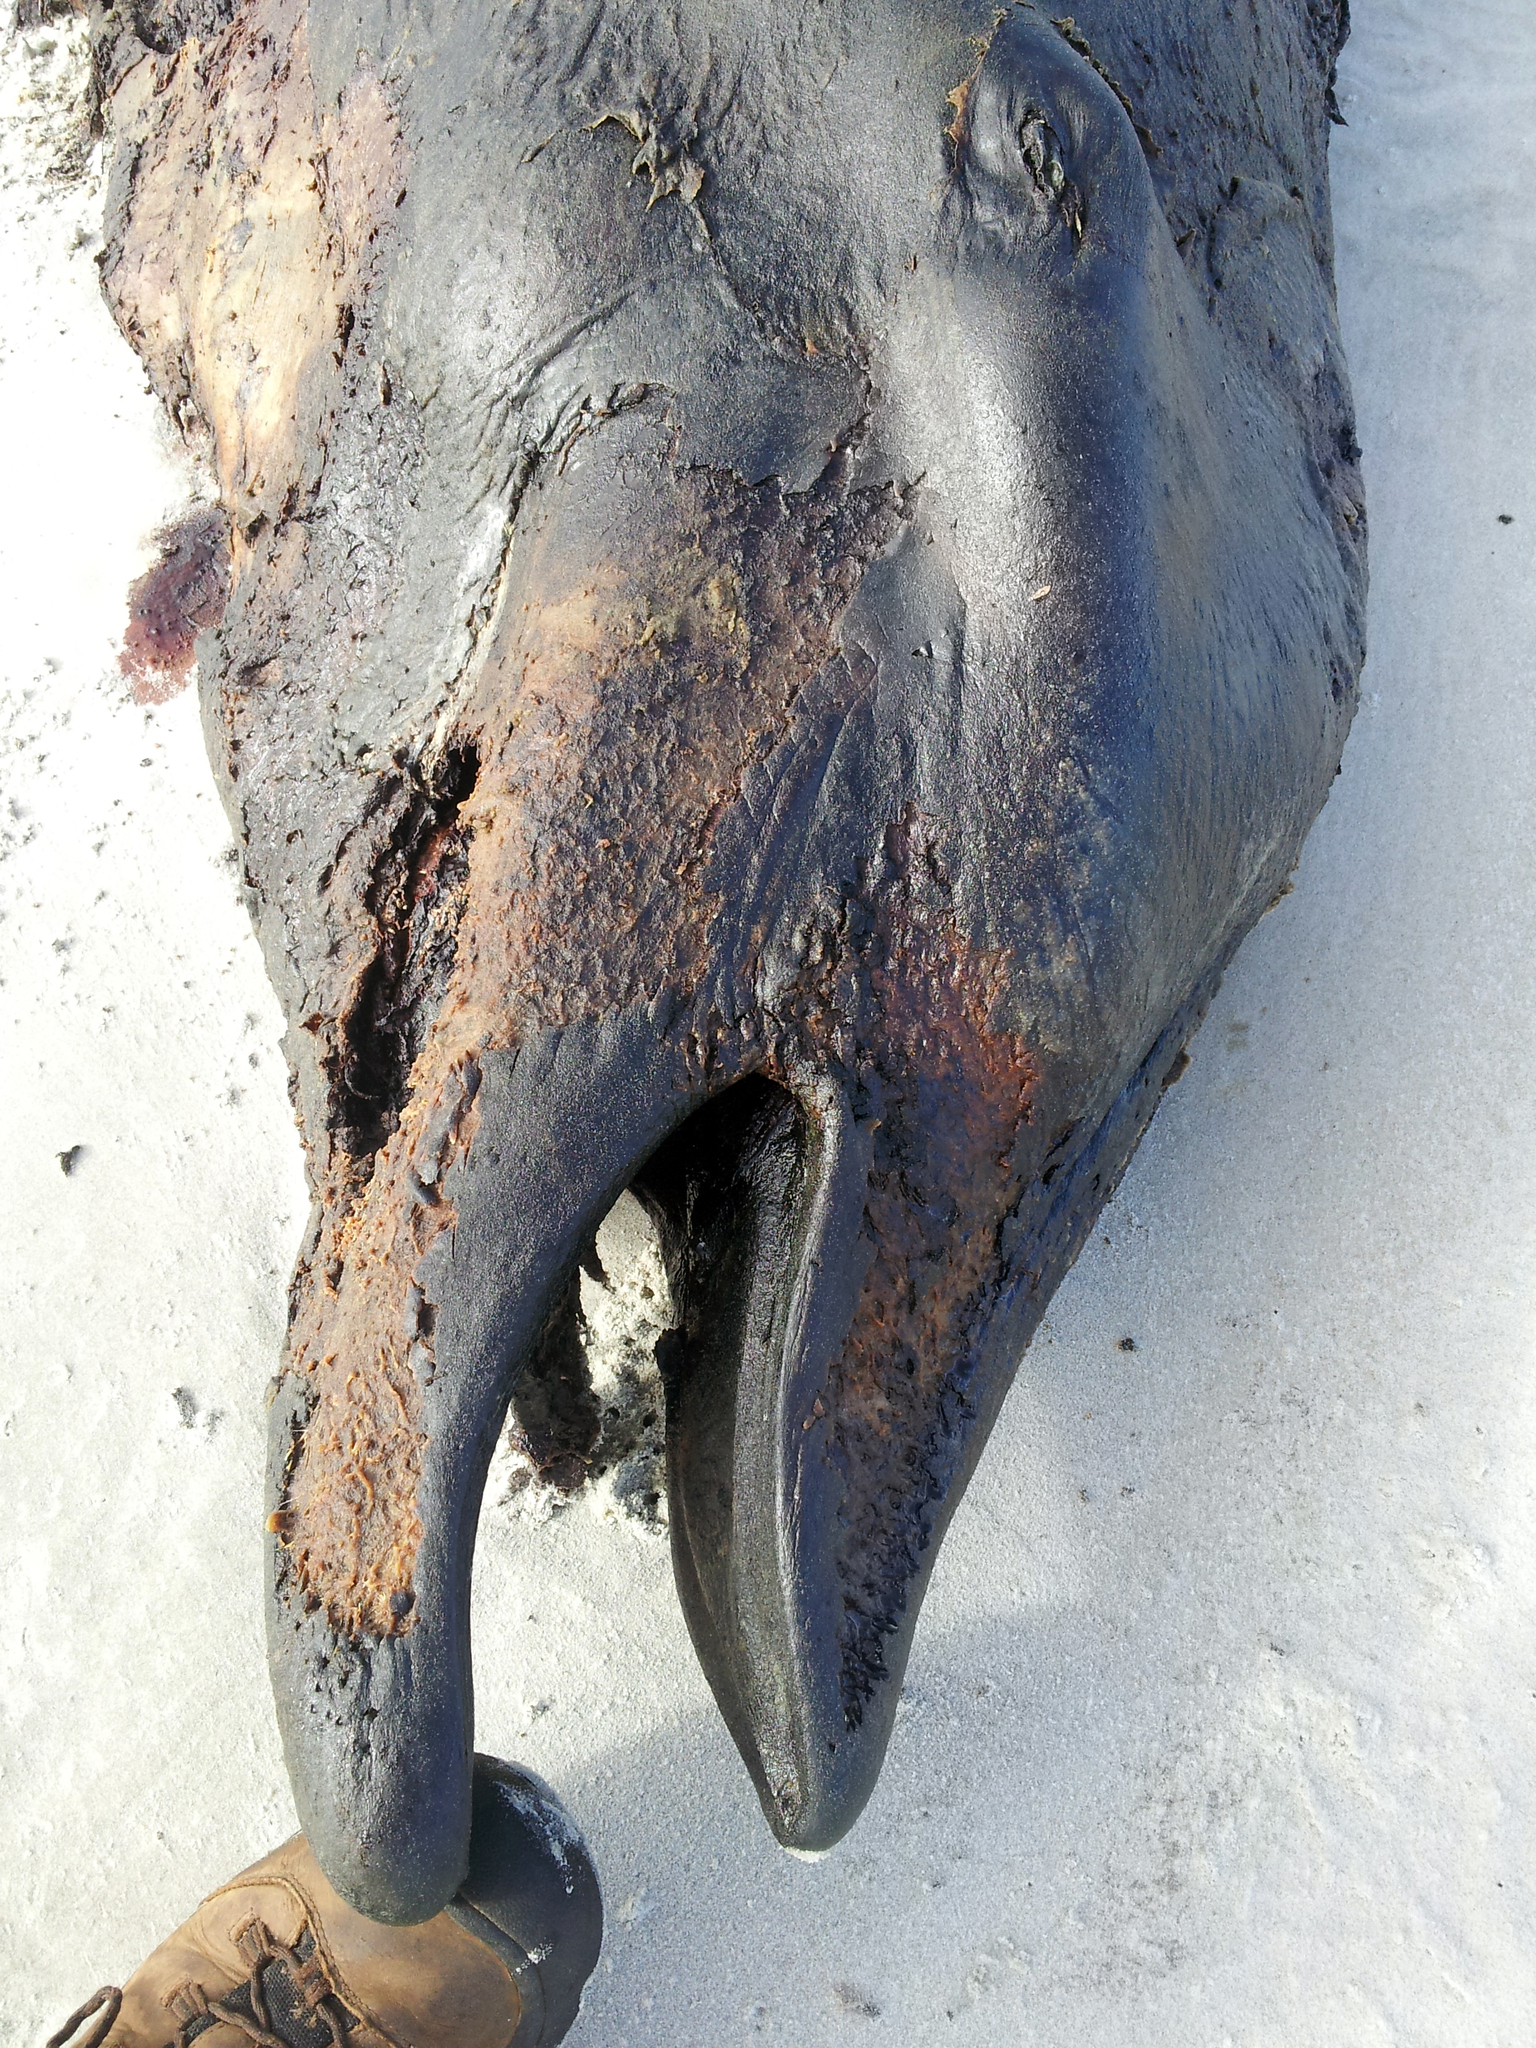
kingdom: Animalia
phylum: Chordata
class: Mammalia
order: Cetacea
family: Hyperoodontidae
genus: Ziphius
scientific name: Ziphius cavirostris
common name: Cuvier's beaked whale
